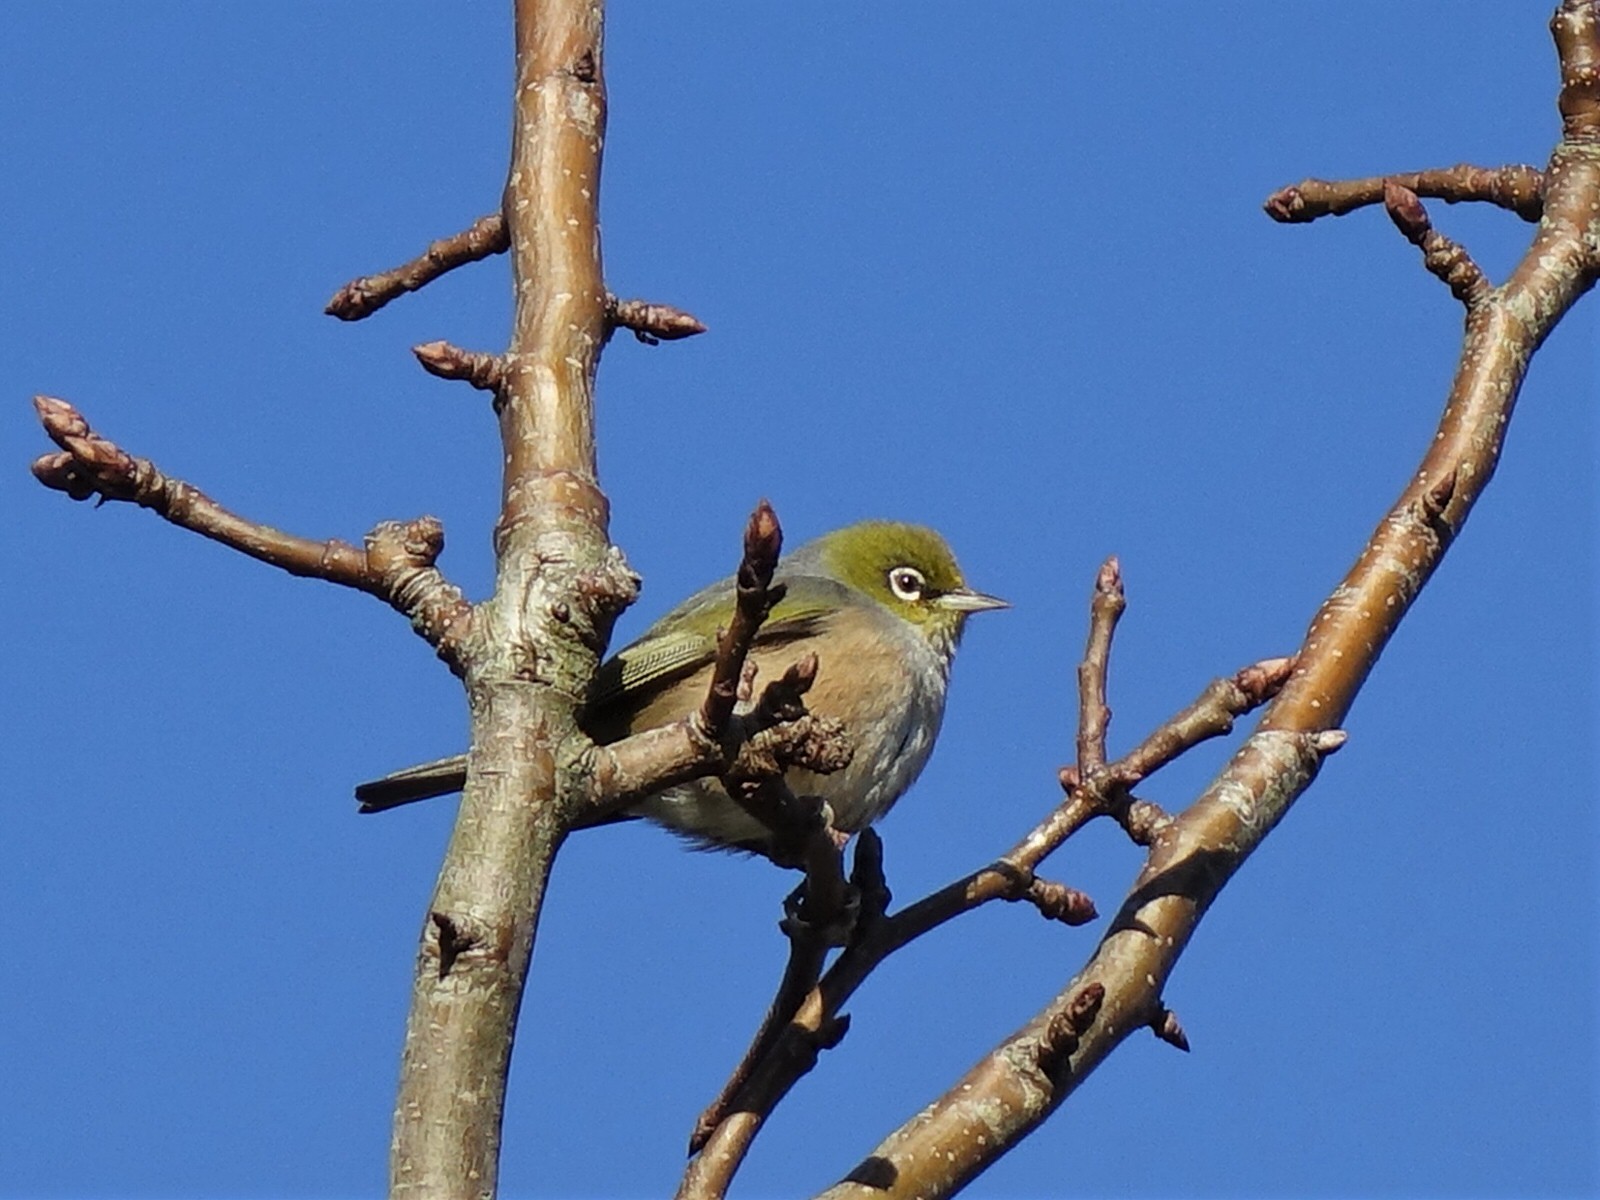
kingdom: Animalia
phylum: Chordata
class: Aves
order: Passeriformes
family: Zosteropidae
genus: Zosterops
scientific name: Zosterops lateralis
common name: Silvereye
